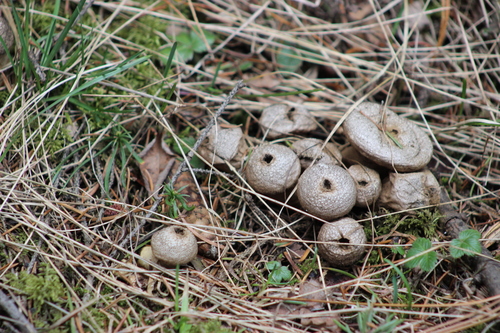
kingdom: Fungi
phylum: Basidiomycota
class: Agaricomycetes
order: Agaricales
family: Lycoperdaceae
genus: Lycoperdon
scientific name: Lycoperdon perlatum
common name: Common puffball
